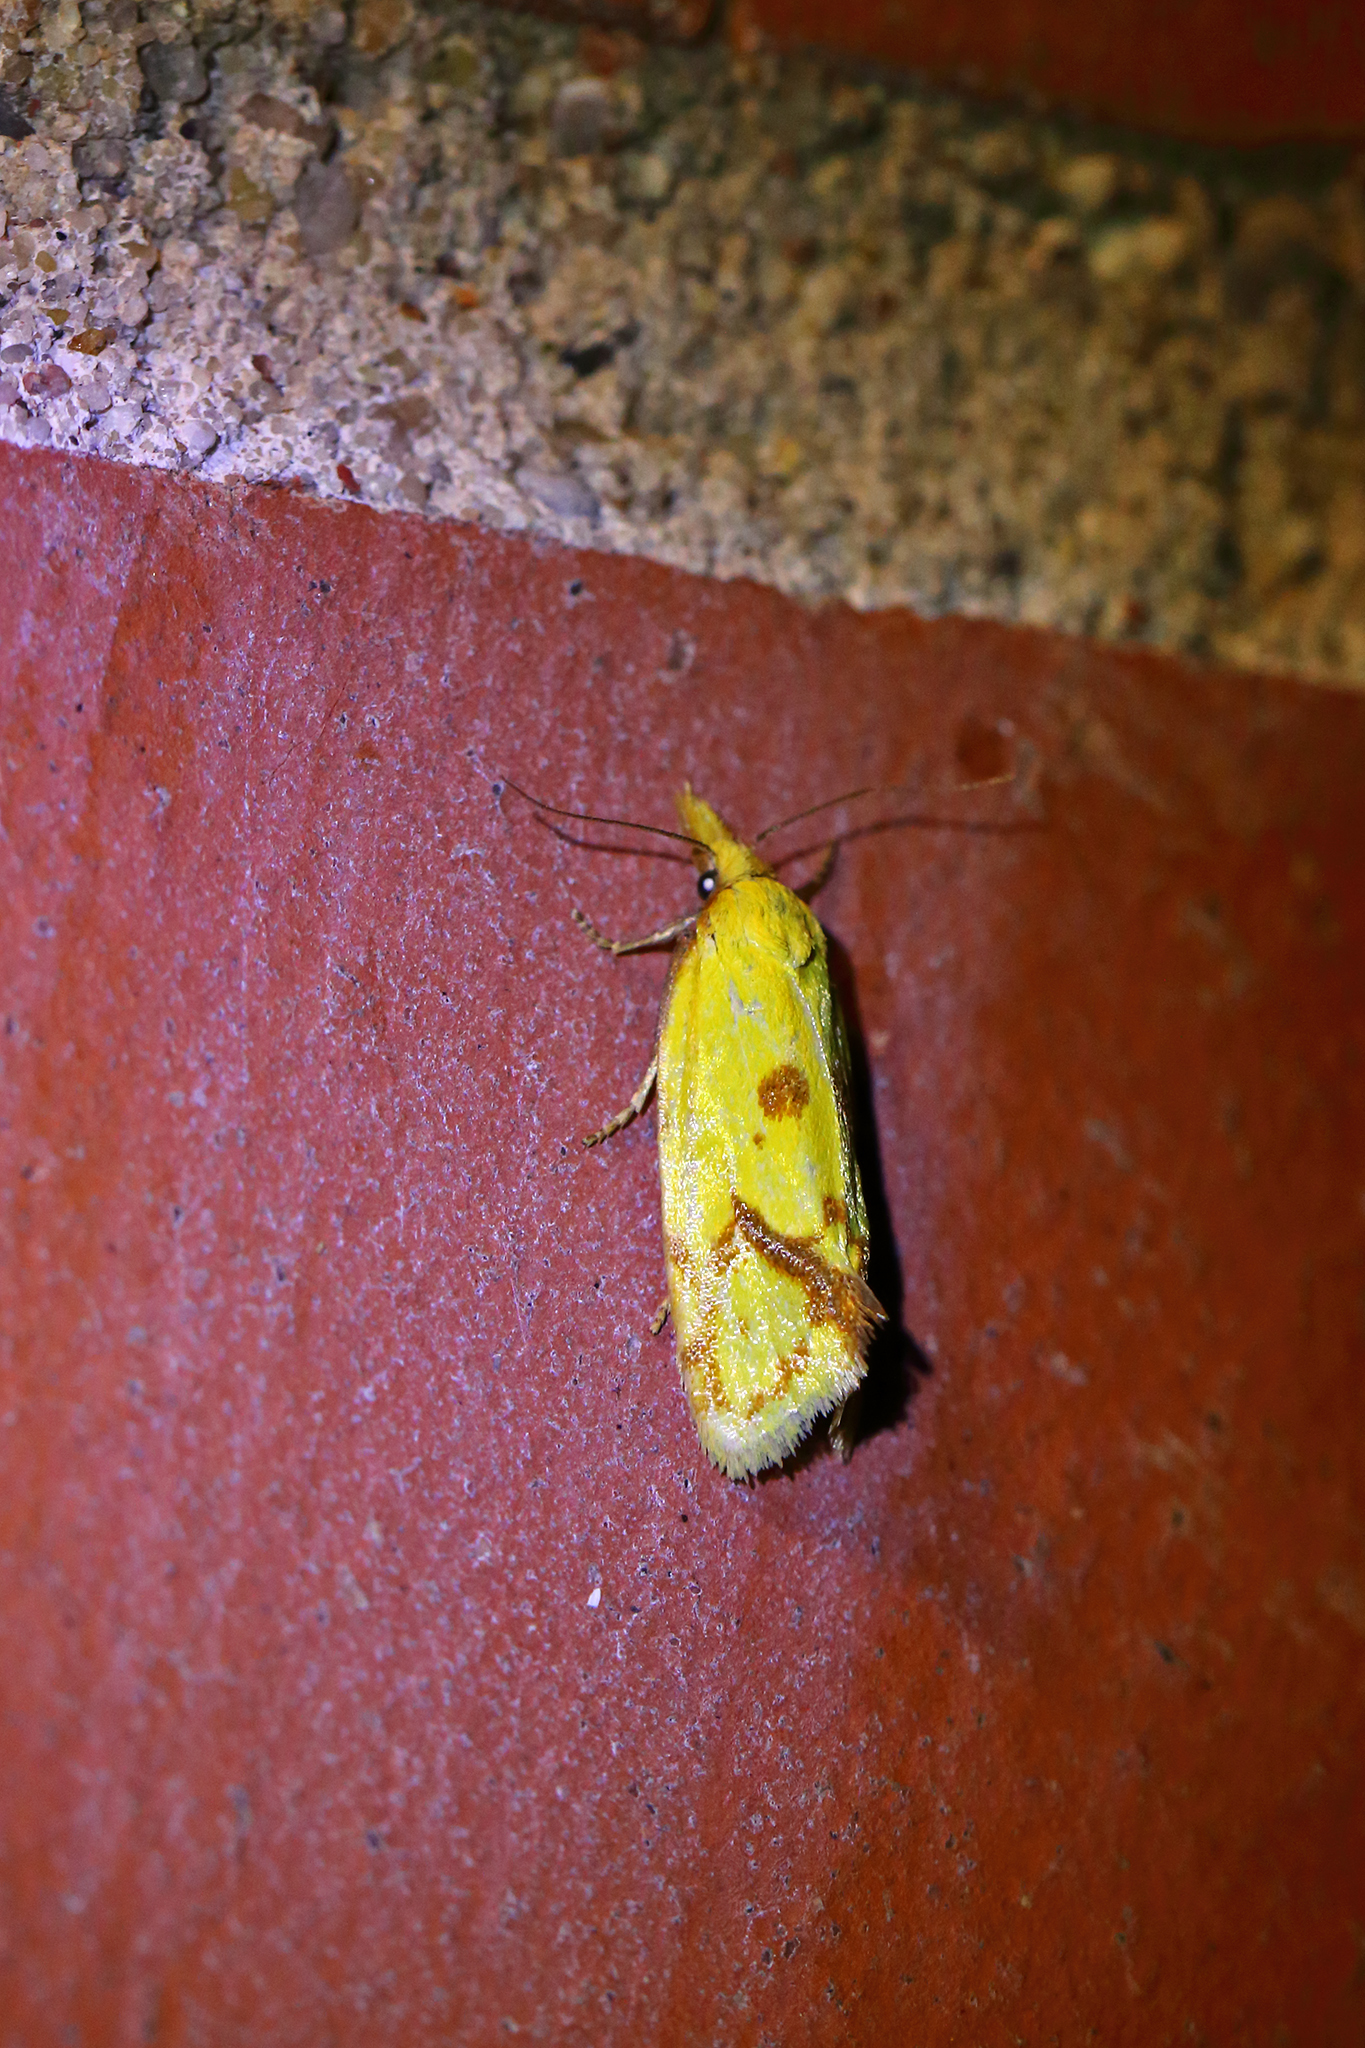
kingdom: Animalia
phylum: Arthropoda
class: Insecta
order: Lepidoptera
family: Tortricidae
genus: Agapeta
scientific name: Agapeta hamana
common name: Common yellow conch
